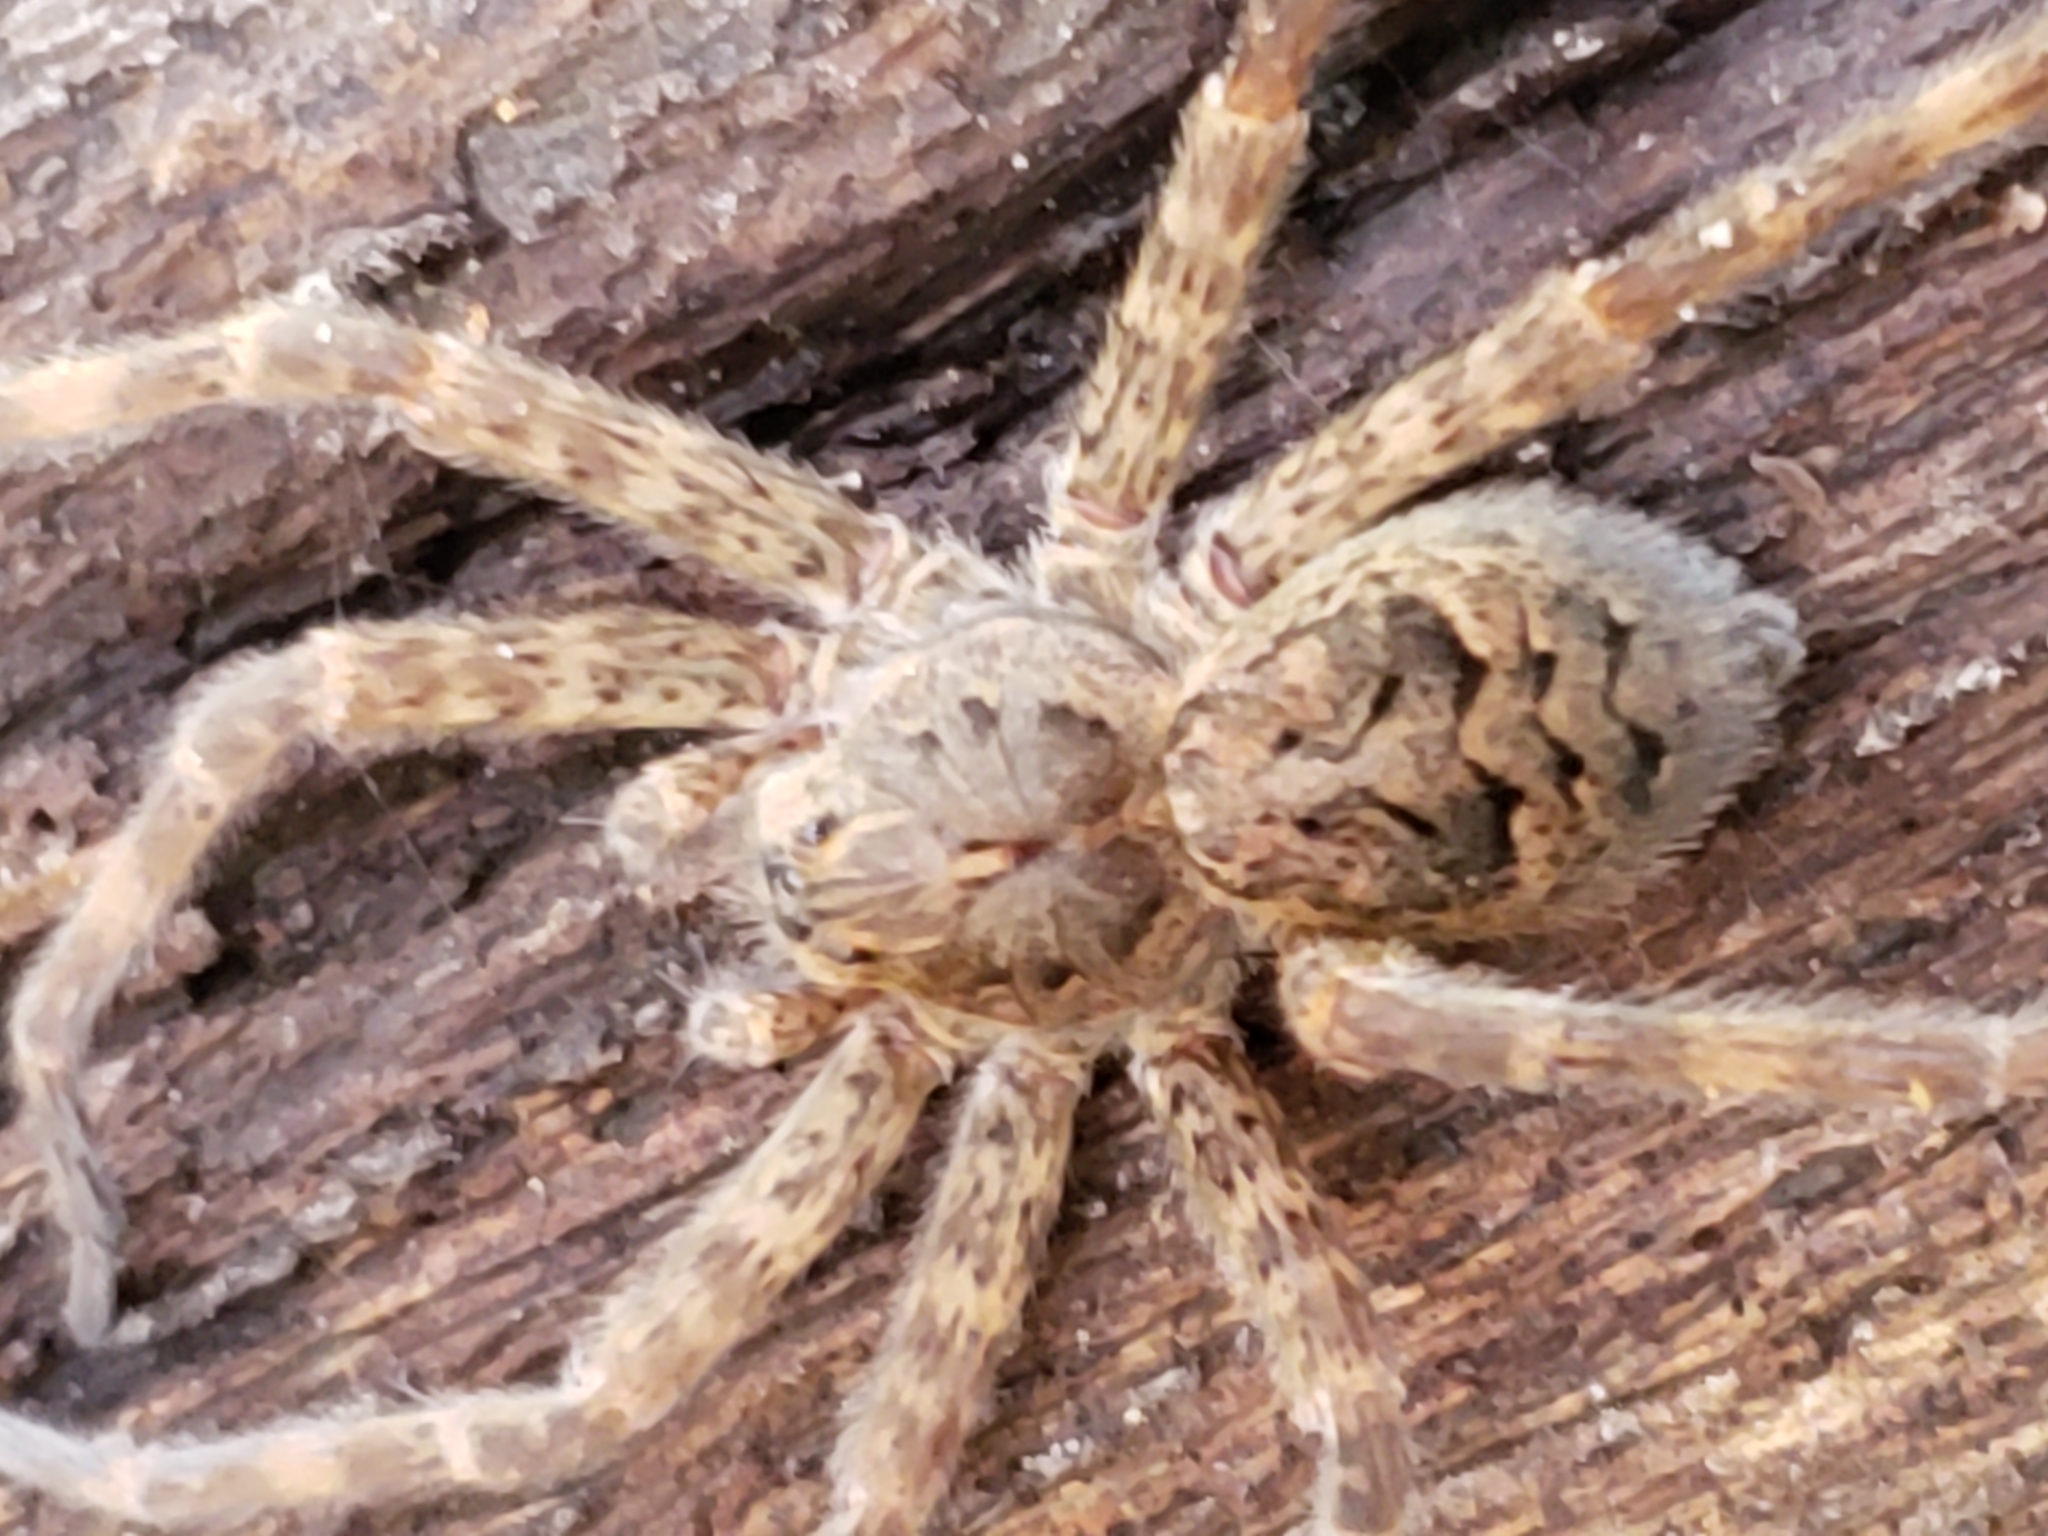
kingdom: Animalia
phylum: Arthropoda
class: Arachnida
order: Araneae
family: Pisauridae
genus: Dolomedes
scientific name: Dolomedes tenebrosus
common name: Dark fishing spider
